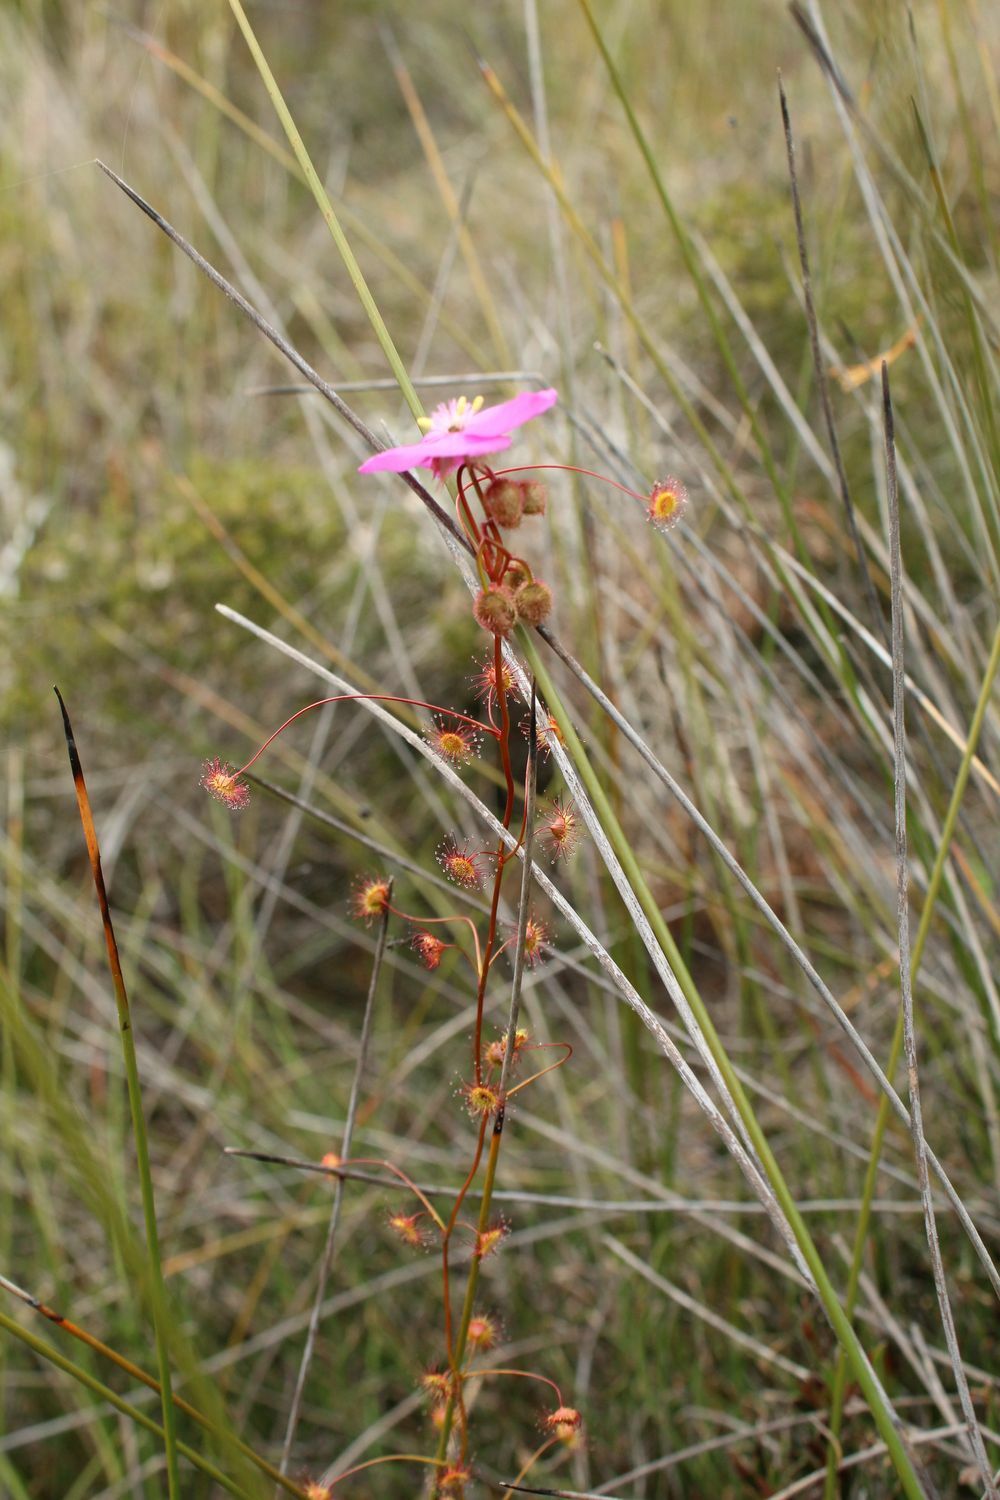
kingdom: Plantae
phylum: Tracheophyta
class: Magnoliopsida
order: Caryophyllales
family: Droseraceae
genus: Drosera
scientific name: Drosera
